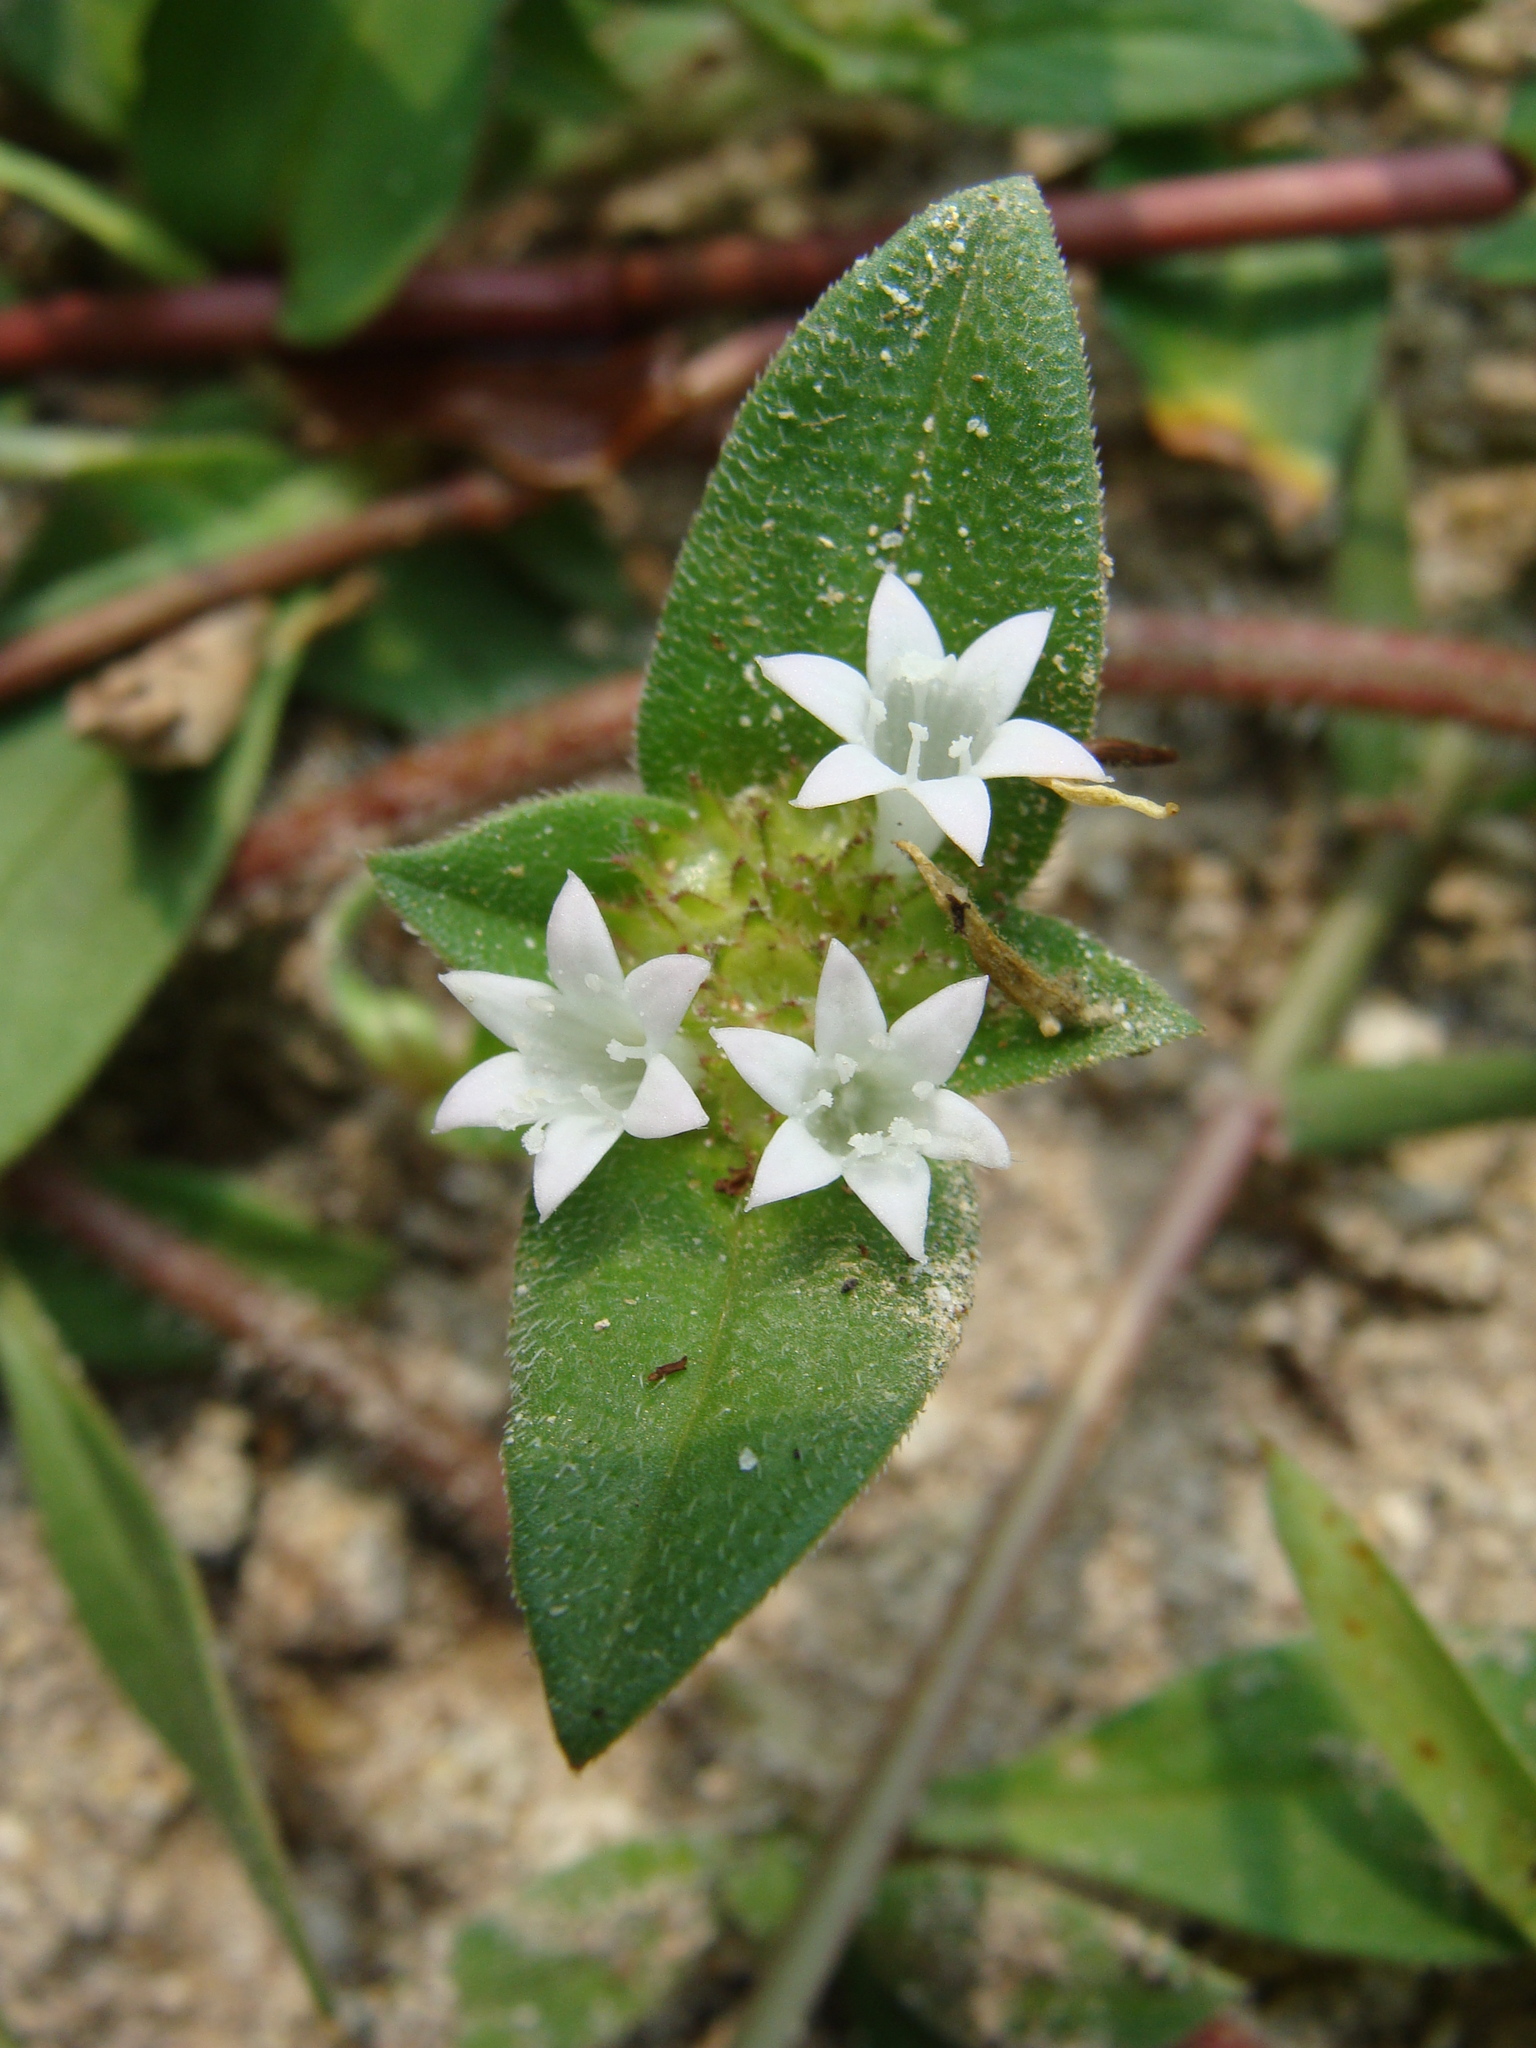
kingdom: Plantae
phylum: Tracheophyta
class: Magnoliopsida
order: Gentianales
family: Rubiaceae
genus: Richardia
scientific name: Richardia scabra
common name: Rough mexican clover
